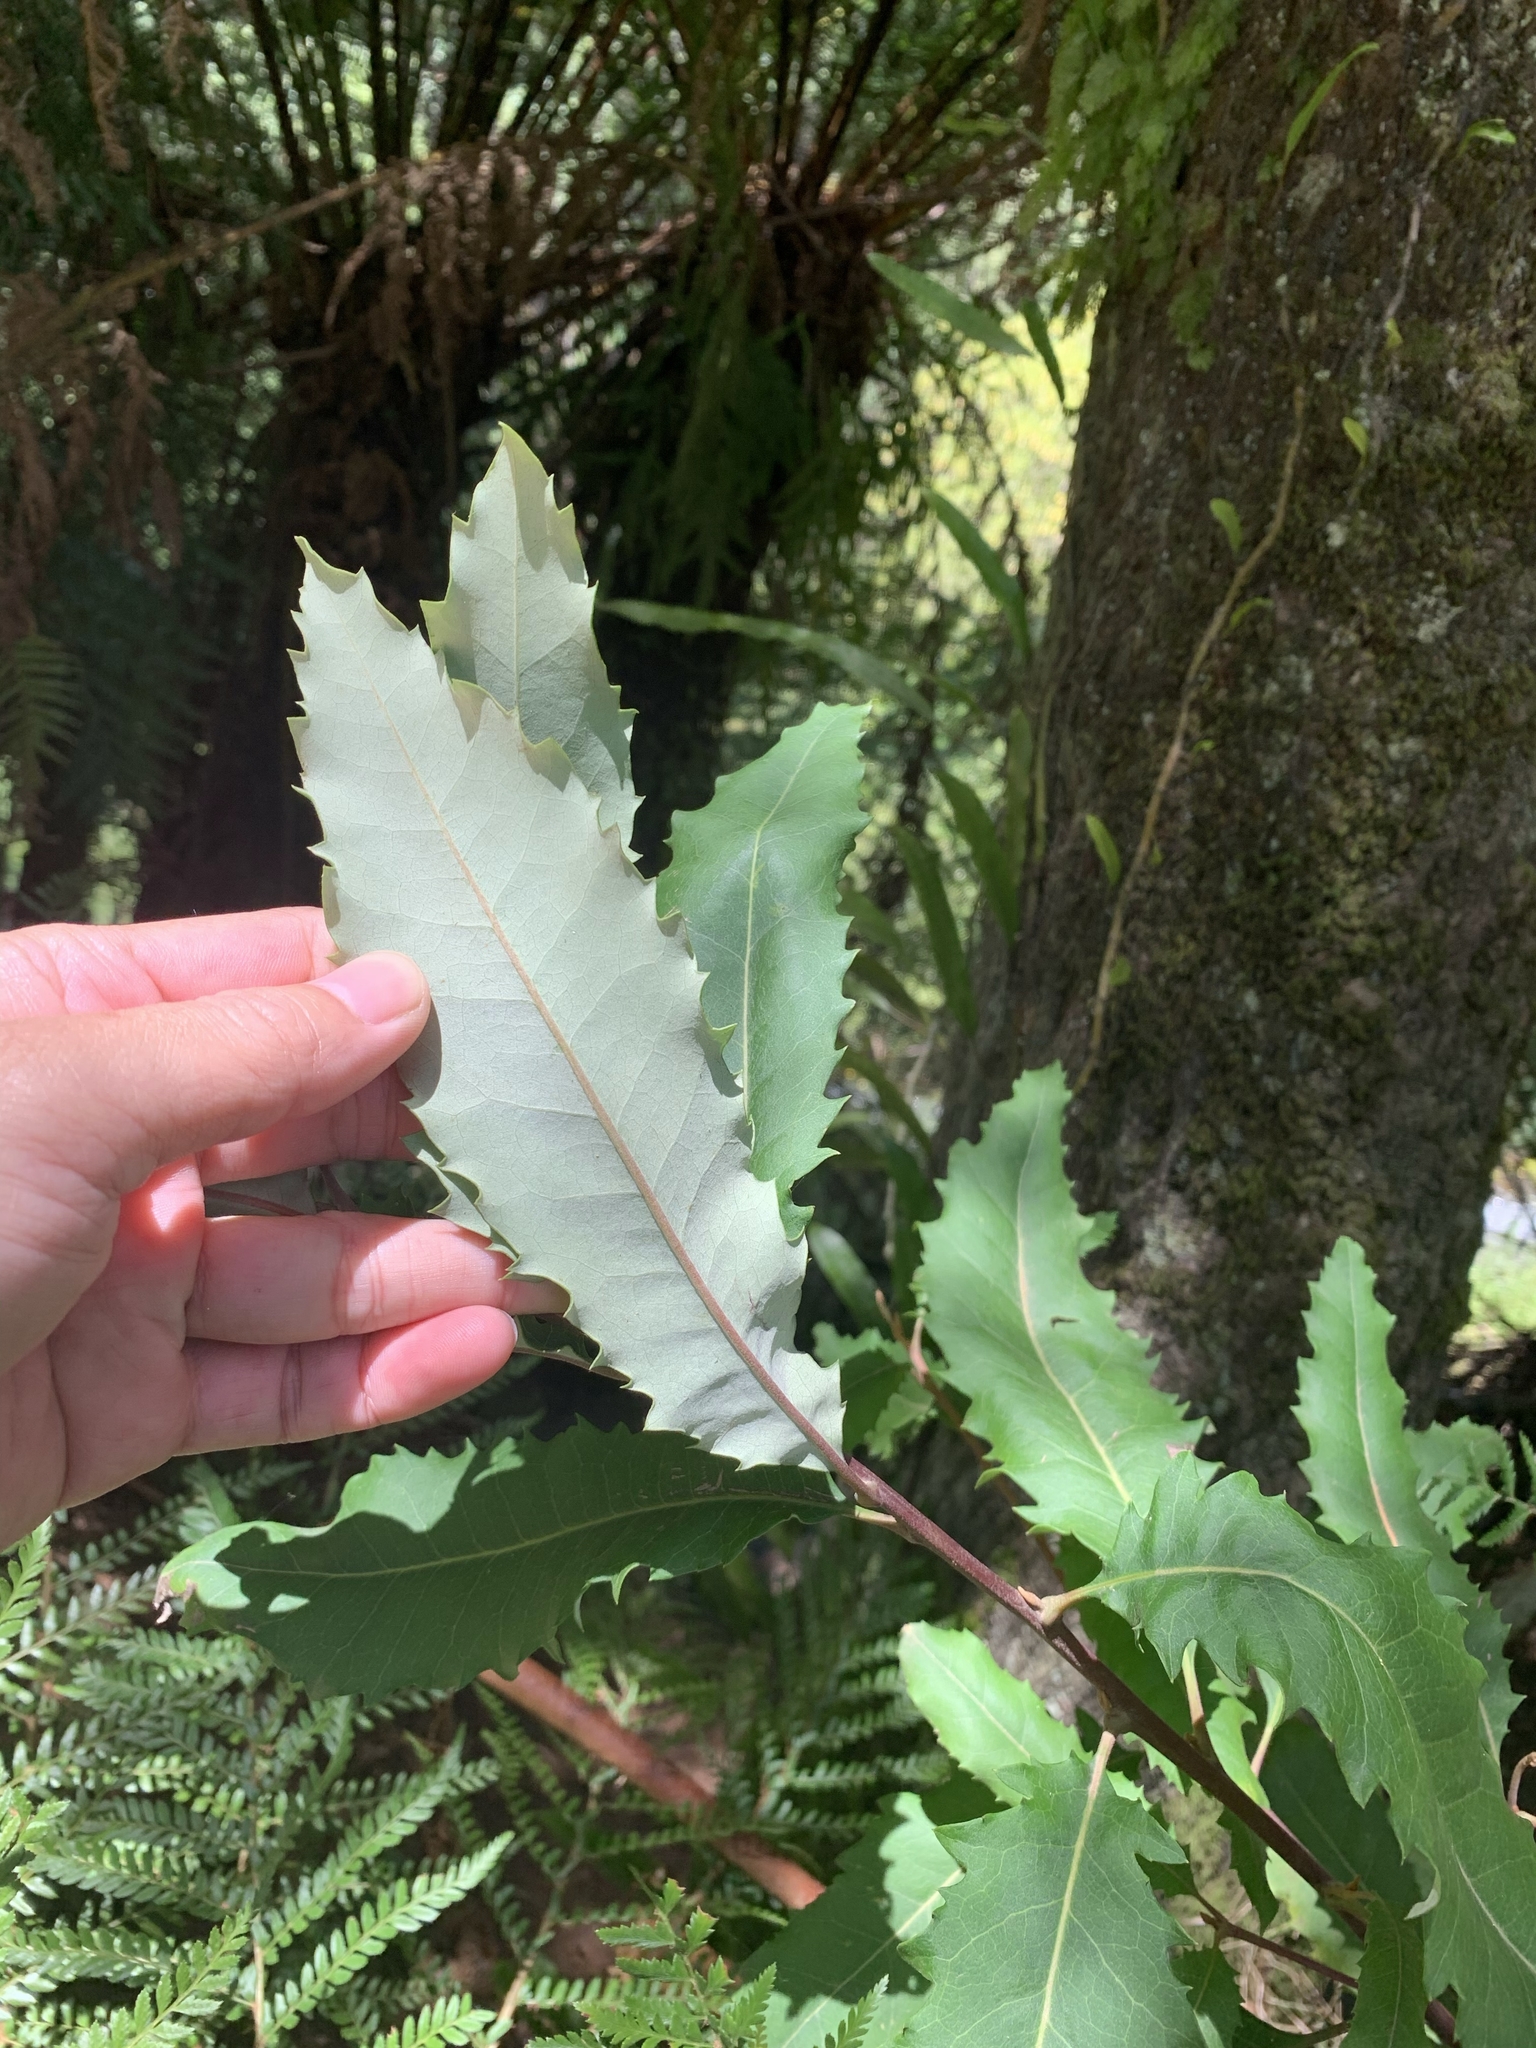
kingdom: Plantae
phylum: Tracheophyta
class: Magnoliopsida
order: Proteales
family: Proteaceae
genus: Lomatia
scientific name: Lomatia fraseri
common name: Forest lomatia
